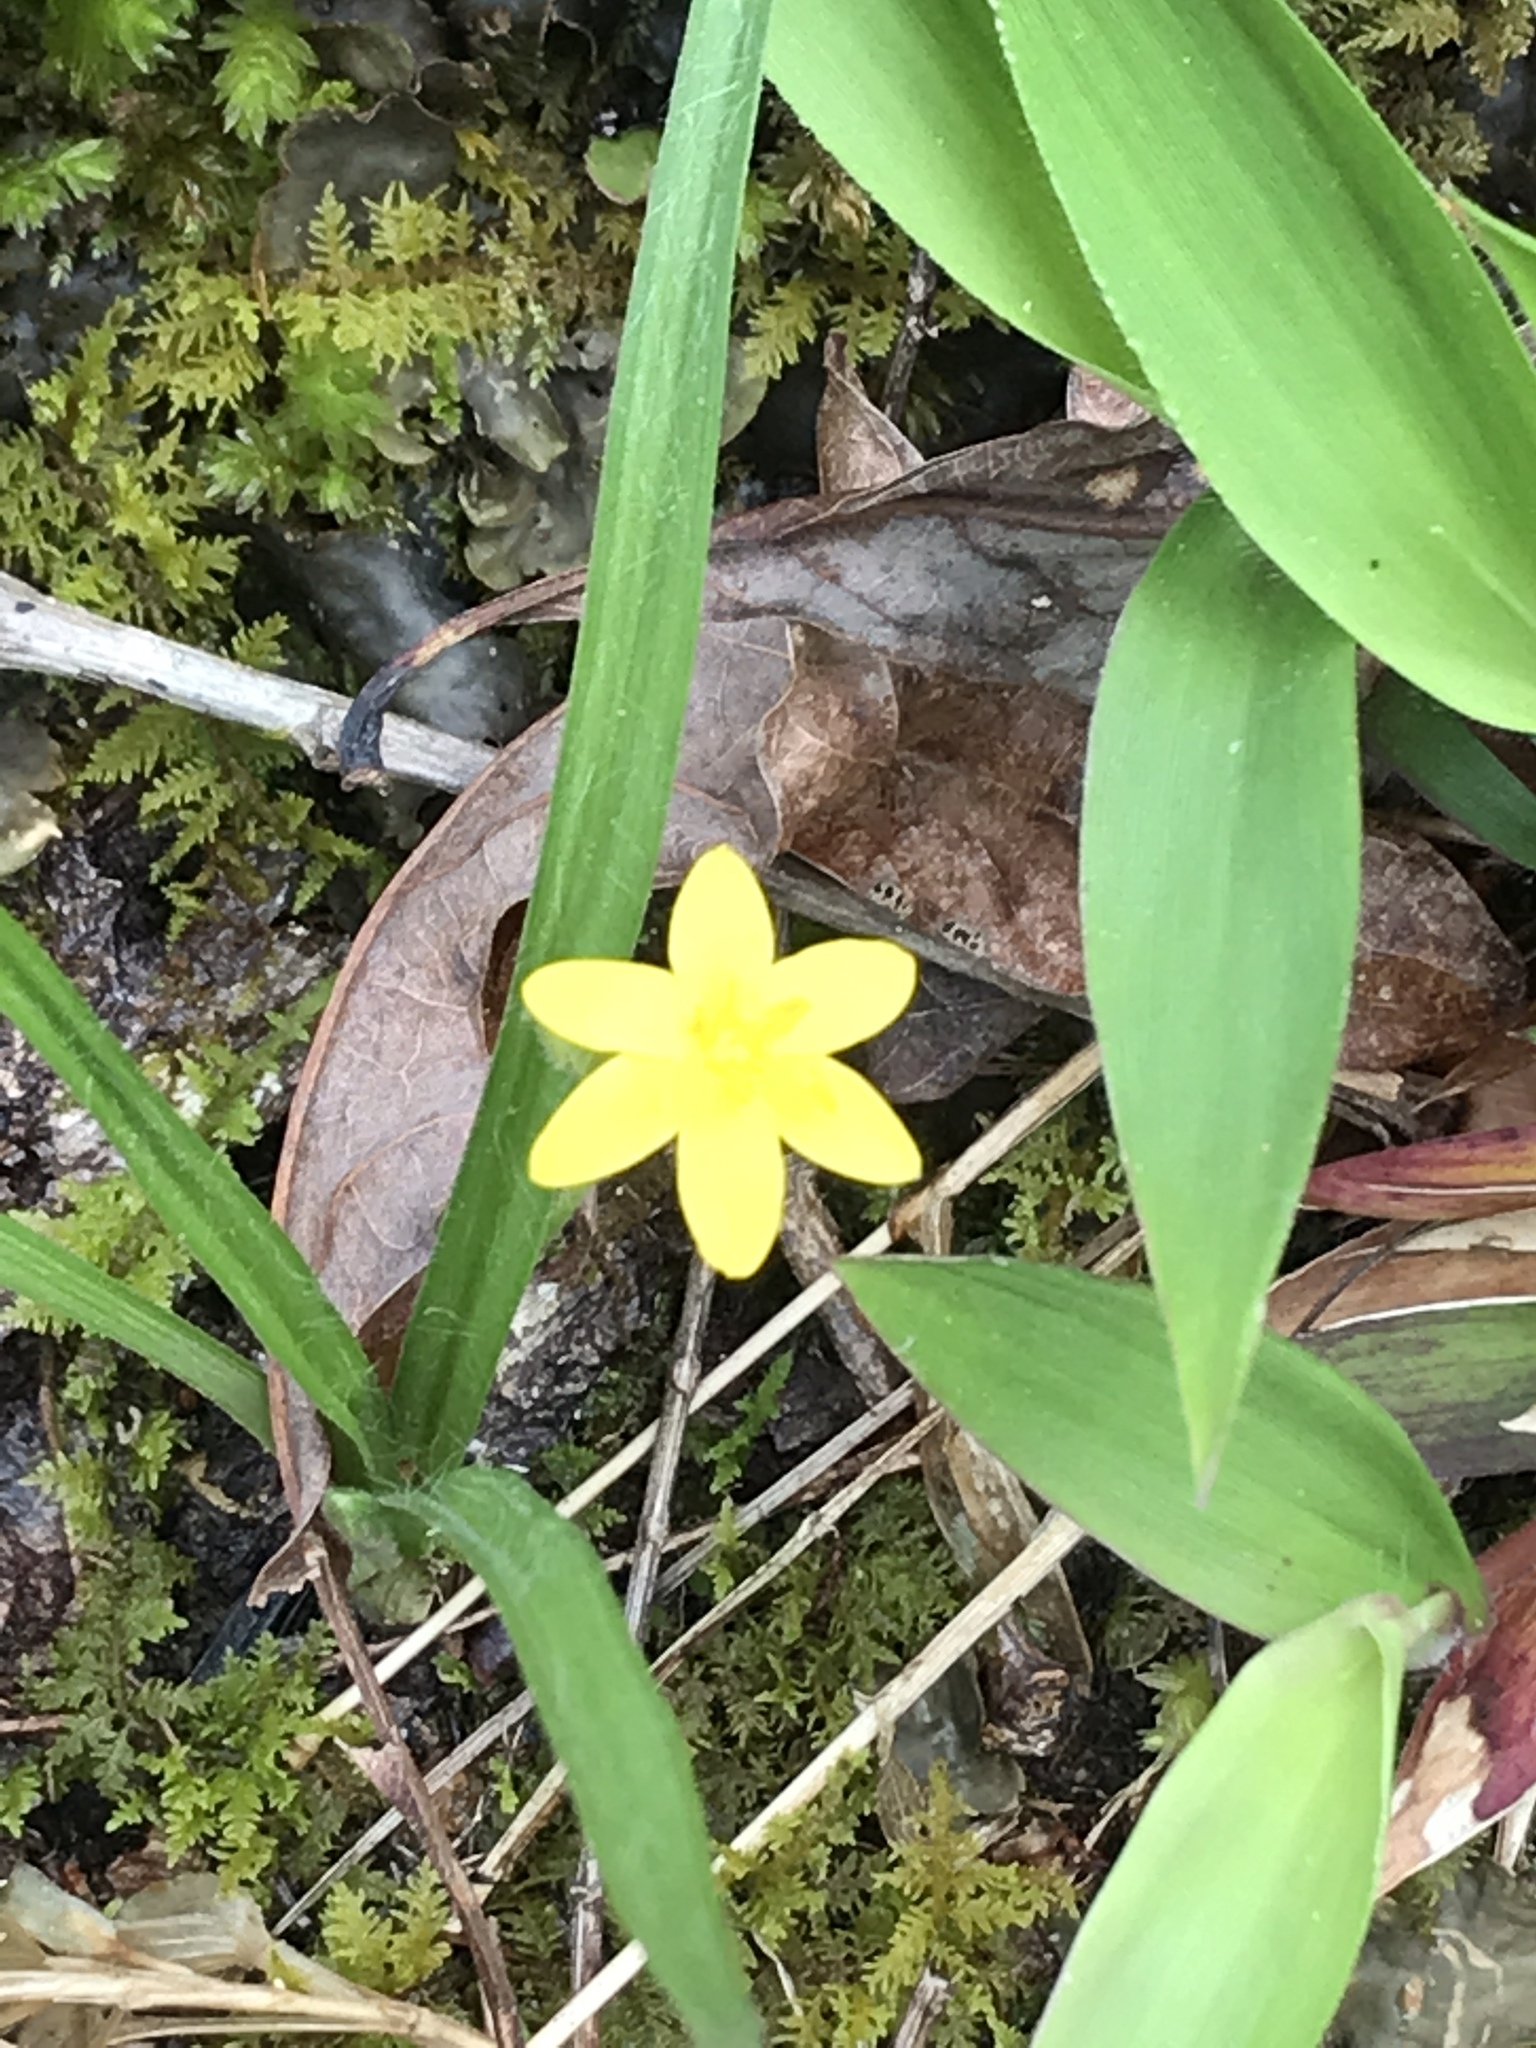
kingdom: Plantae
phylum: Tracheophyta
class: Liliopsida
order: Asparagales
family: Hypoxidaceae
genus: Hypoxis
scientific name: Hypoxis hirsuta
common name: Common goldstar
